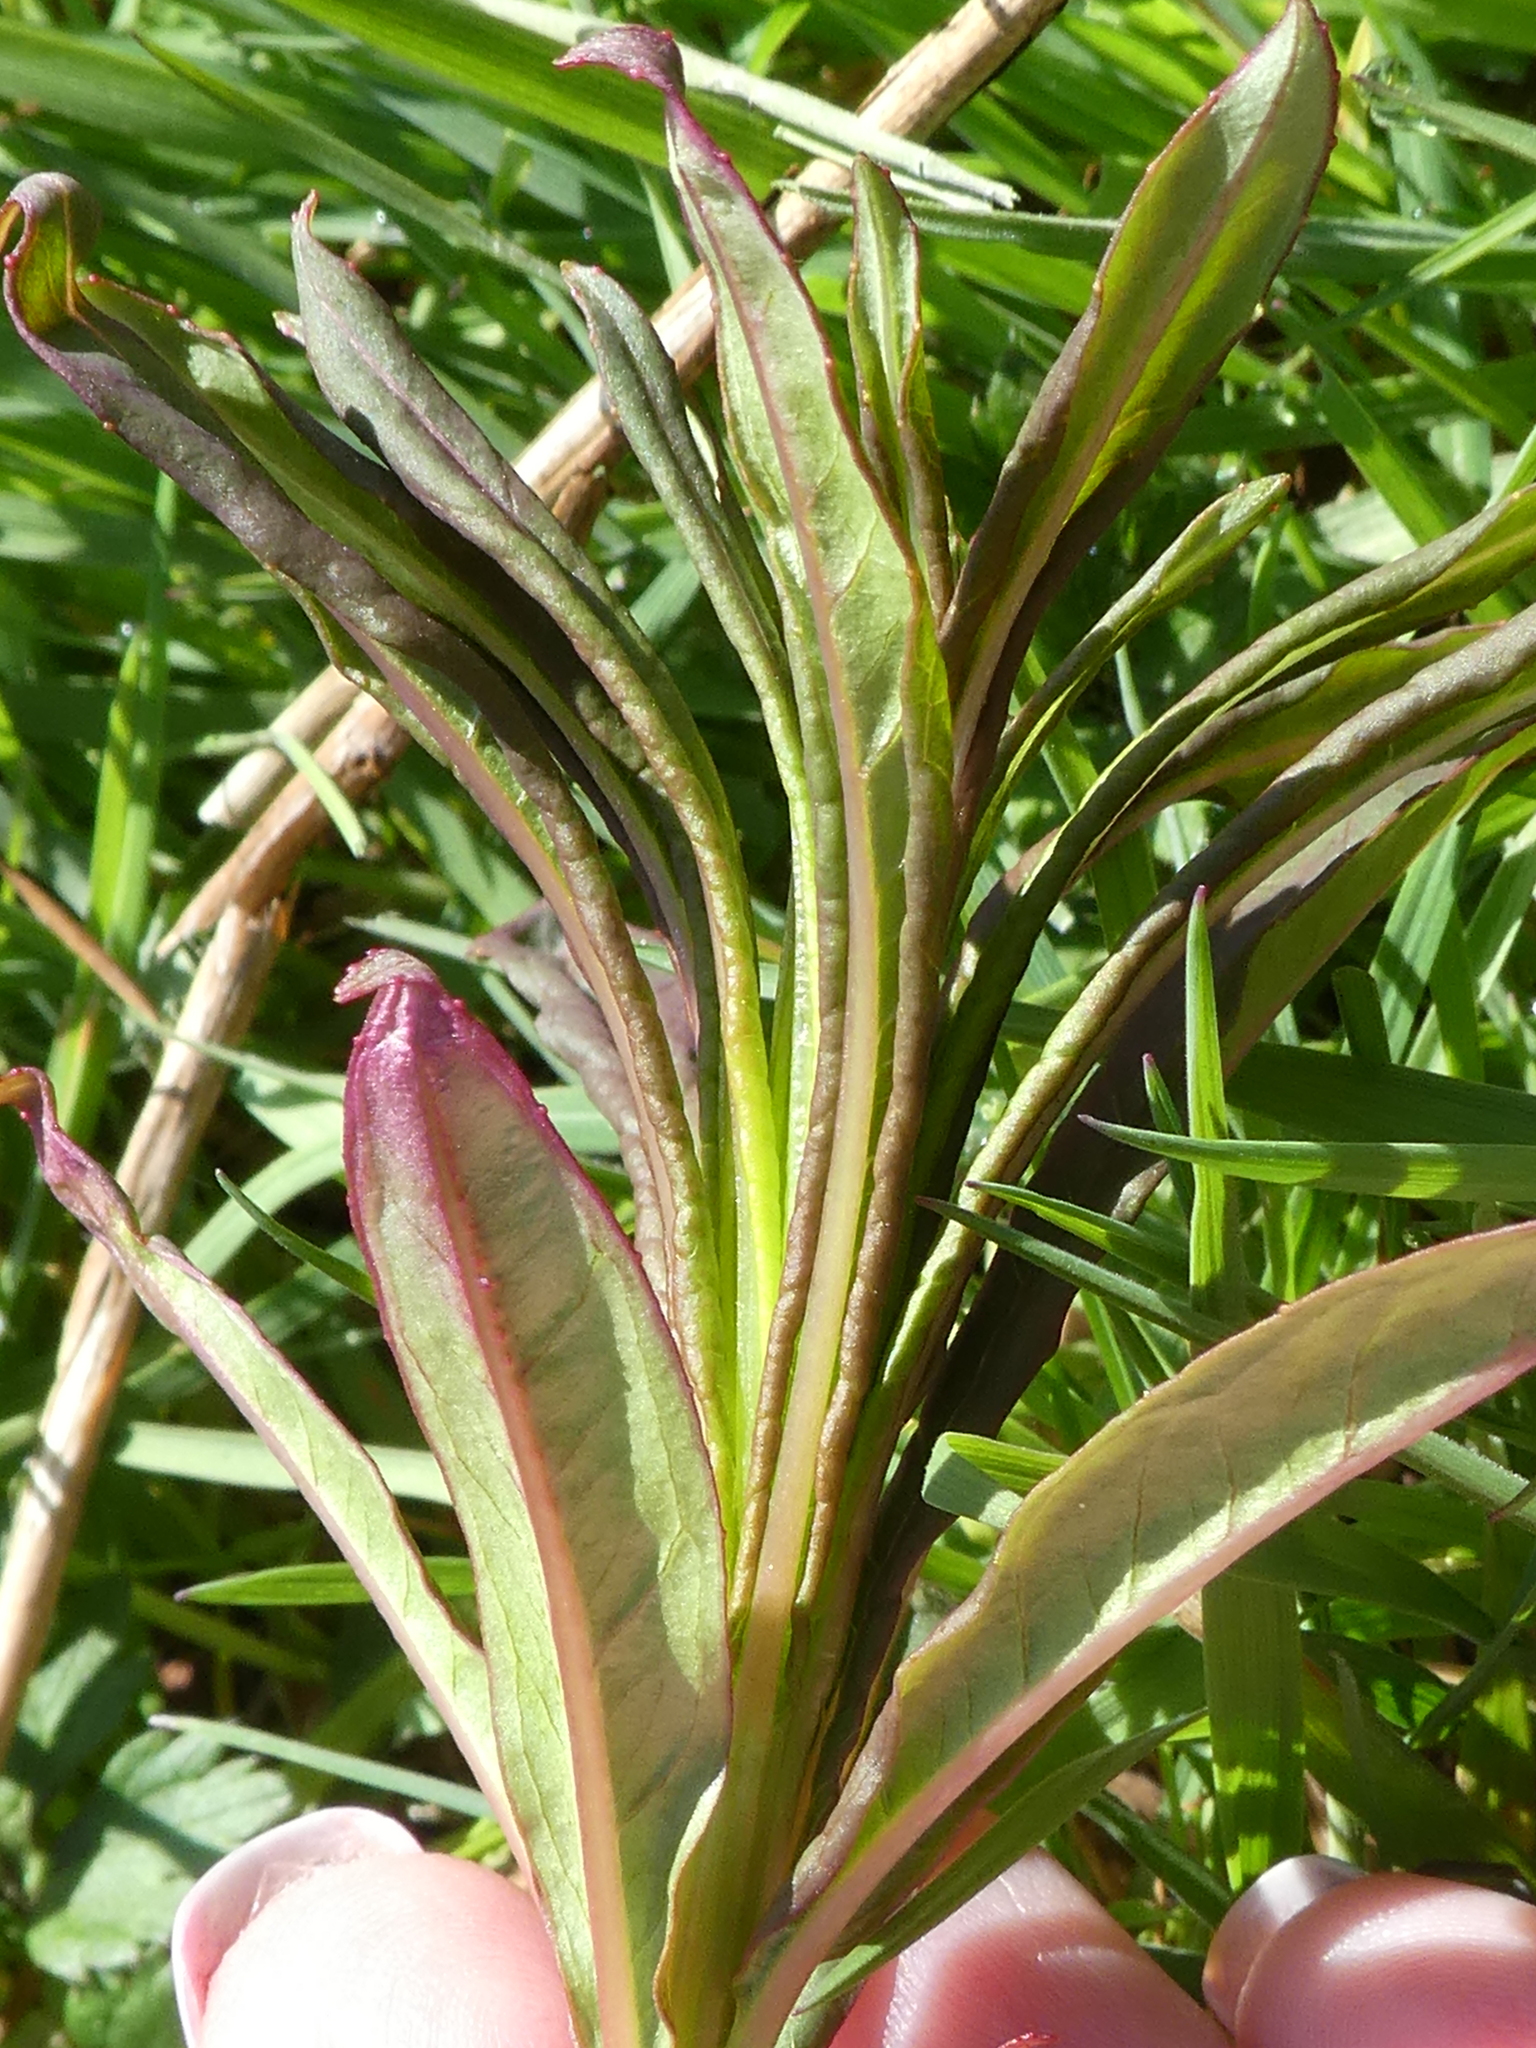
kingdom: Plantae
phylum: Tracheophyta
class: Magnoliopsida
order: Myrtales
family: Onagraceae
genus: Chamaenerion
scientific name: Chamaenerion angustifolium
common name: Fireweed
